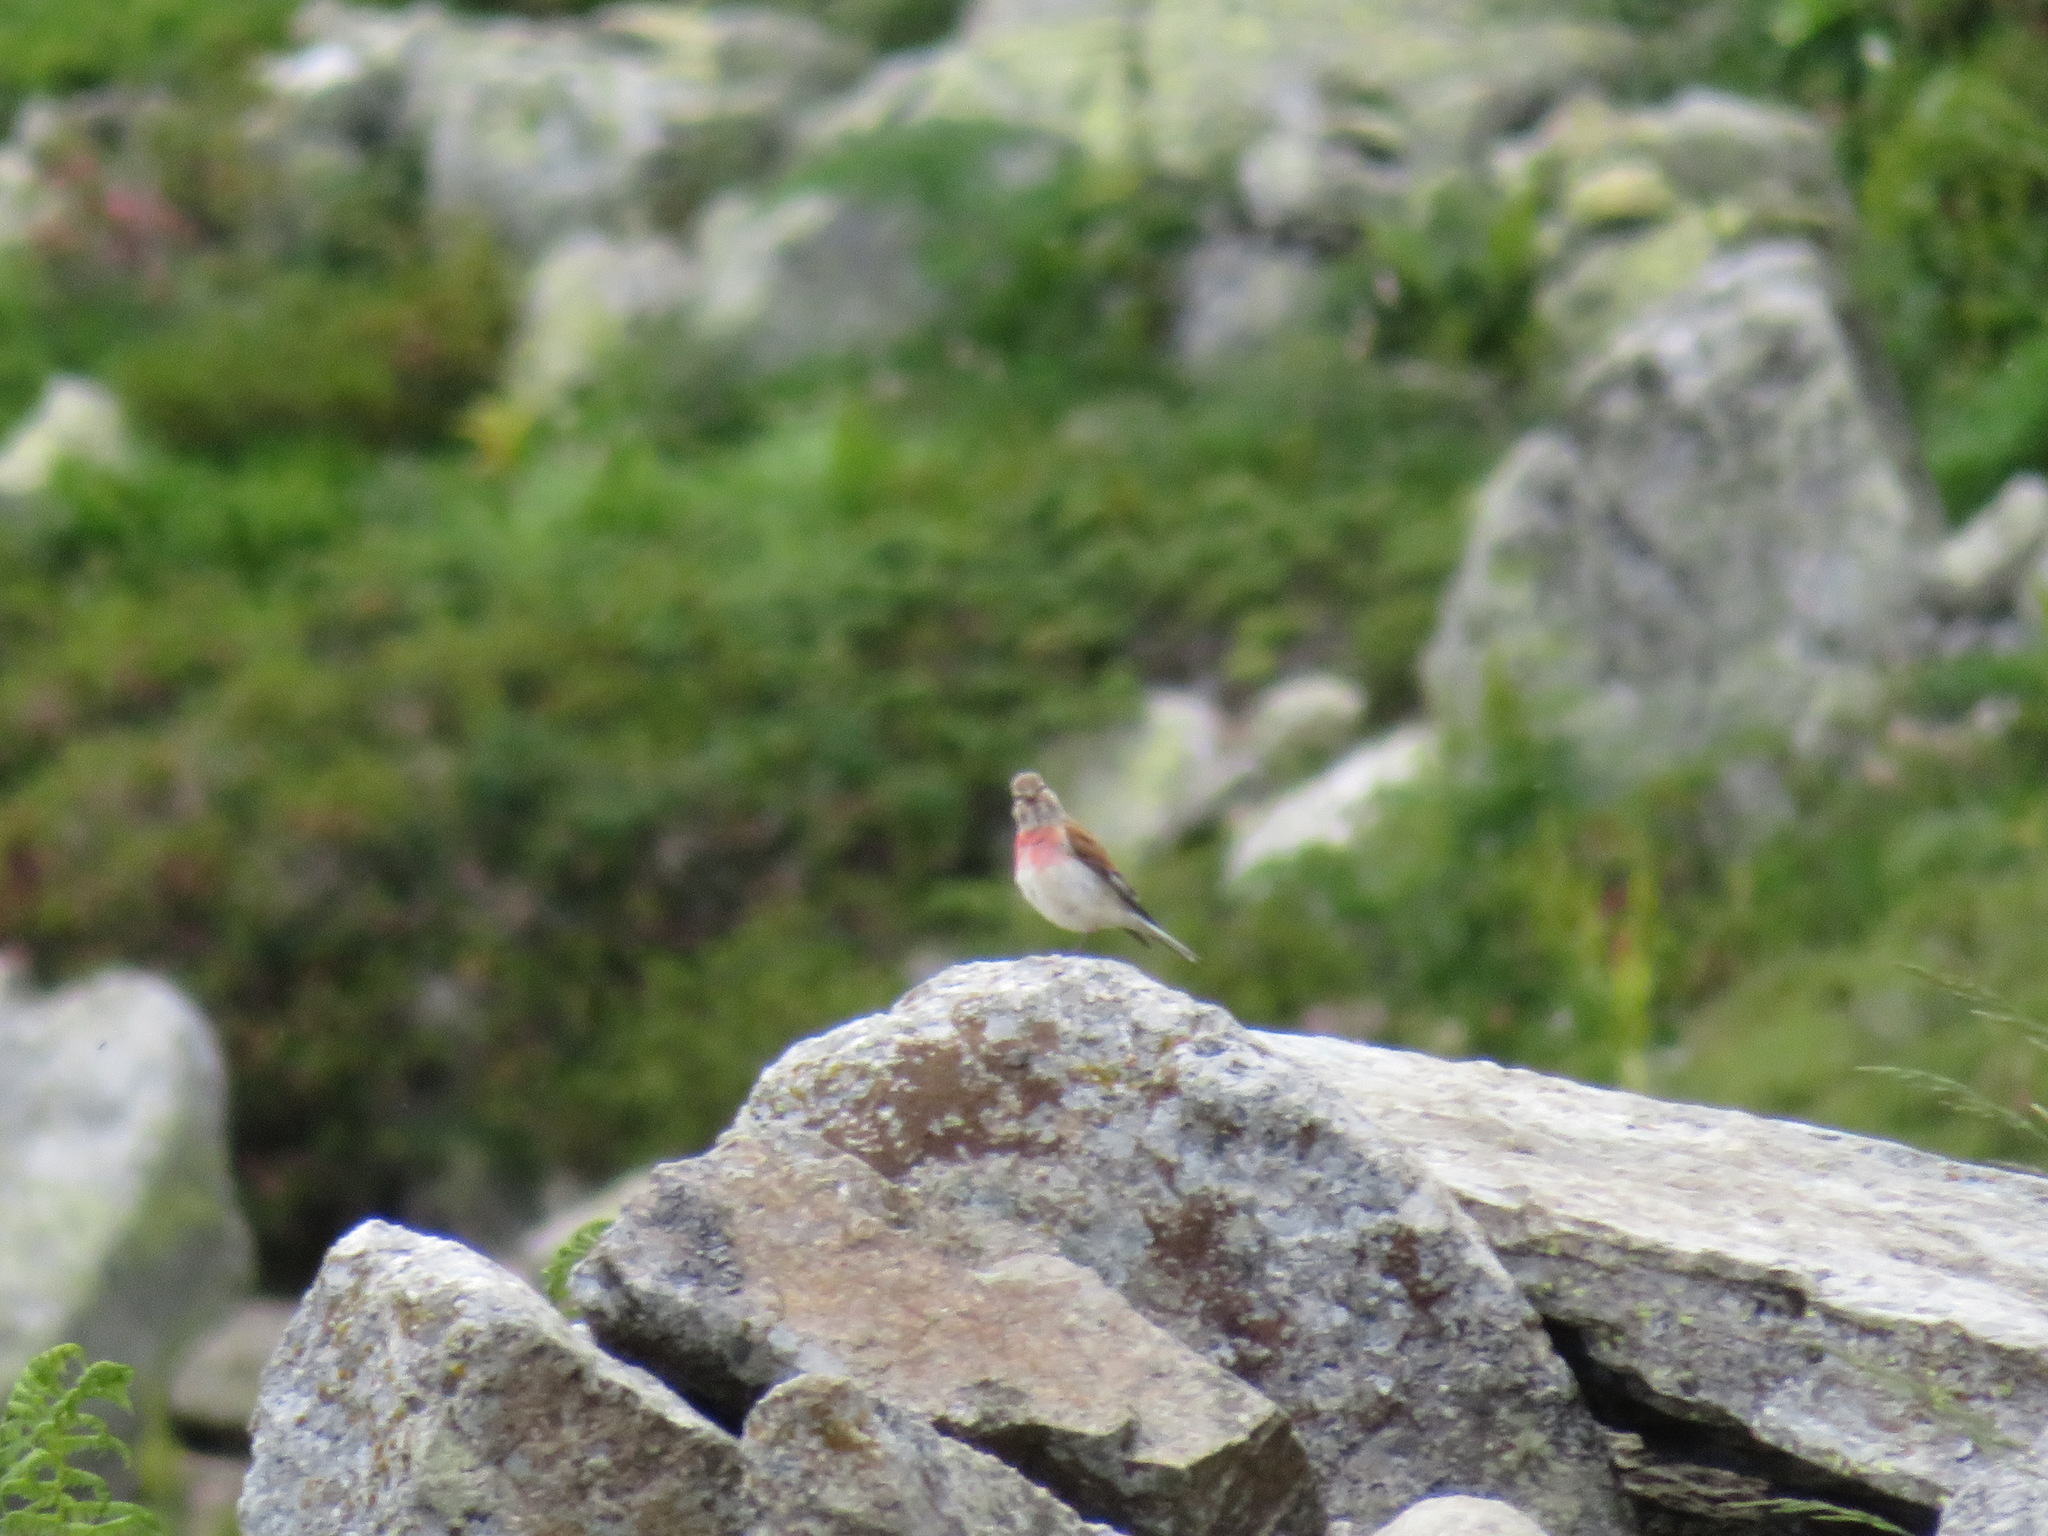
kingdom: Animalia
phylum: Chordata
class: Aves
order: Passeriformes
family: Fringillidae
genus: Linaria
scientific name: Linaria cannabina
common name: Common linnet
